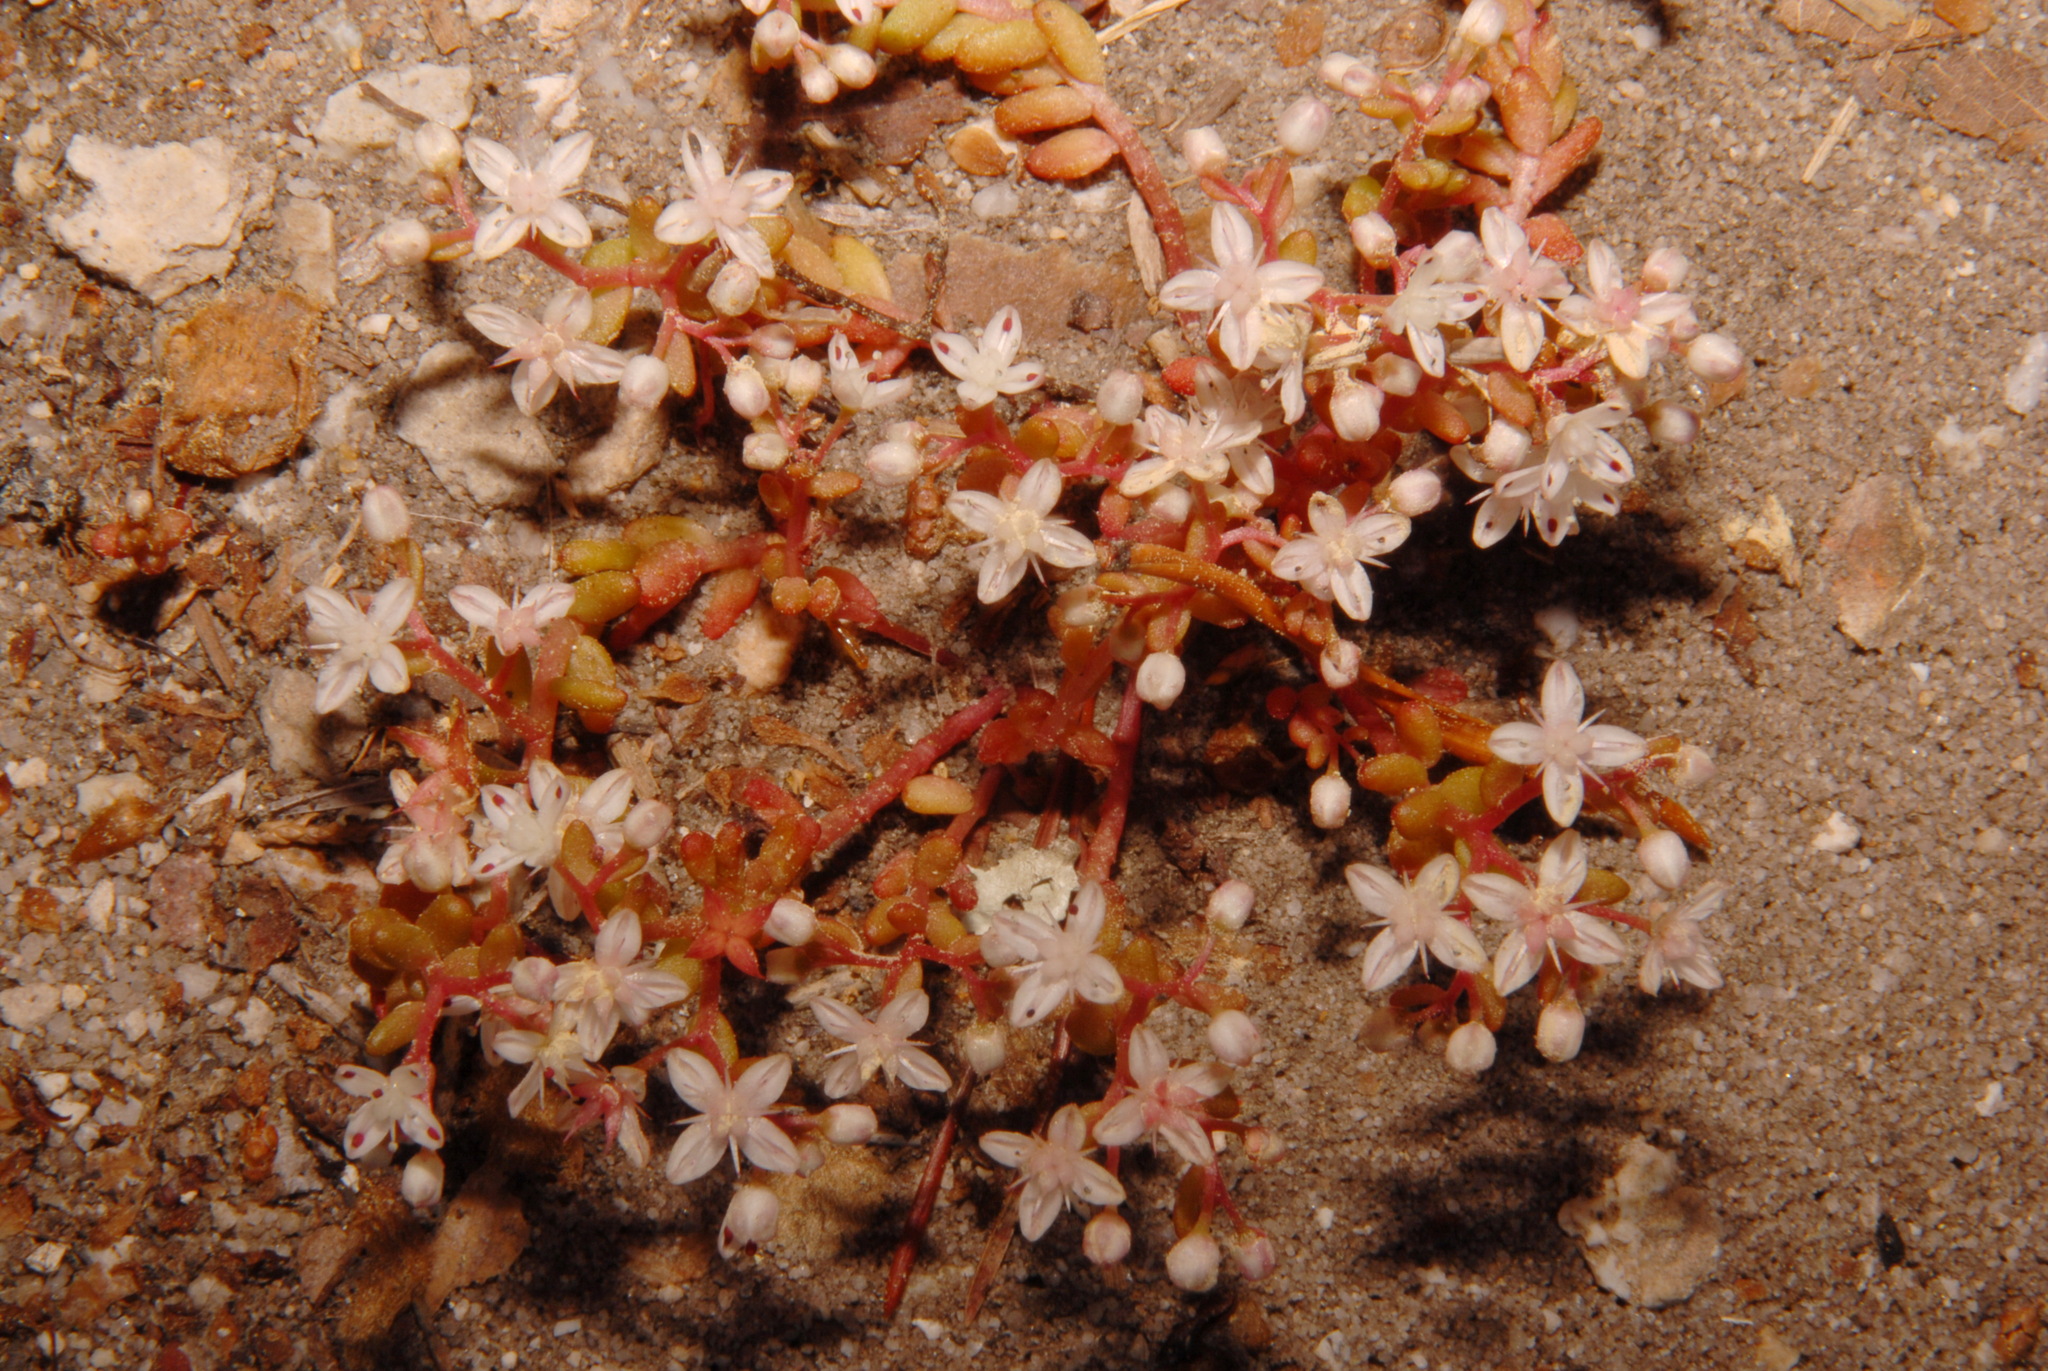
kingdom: Plantae
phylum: Tracheophyta
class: Magnoliopsida
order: Saxifragales
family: Crassulaceae
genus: Sedum
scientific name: Sedum smallii
